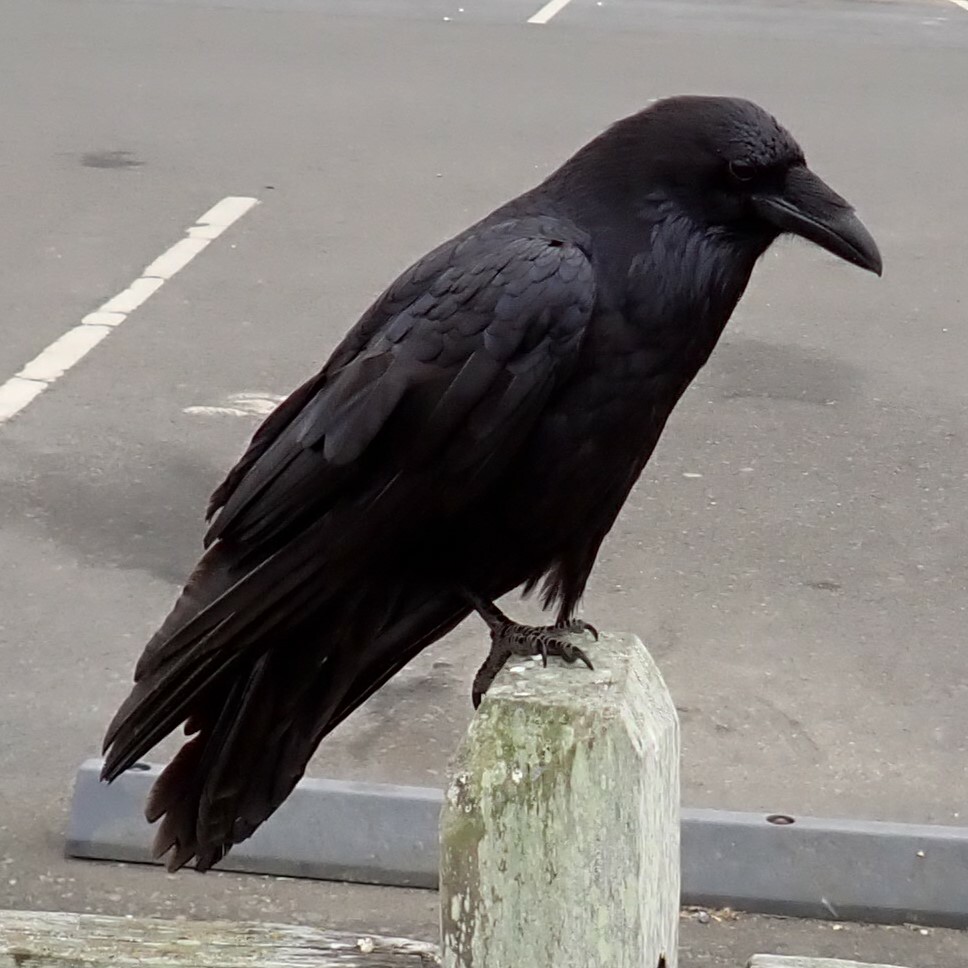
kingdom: Animalia
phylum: Chordata
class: Aves
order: Passeriformes
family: Corvidae
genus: Corvus
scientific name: Corvus corax
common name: Common raven
